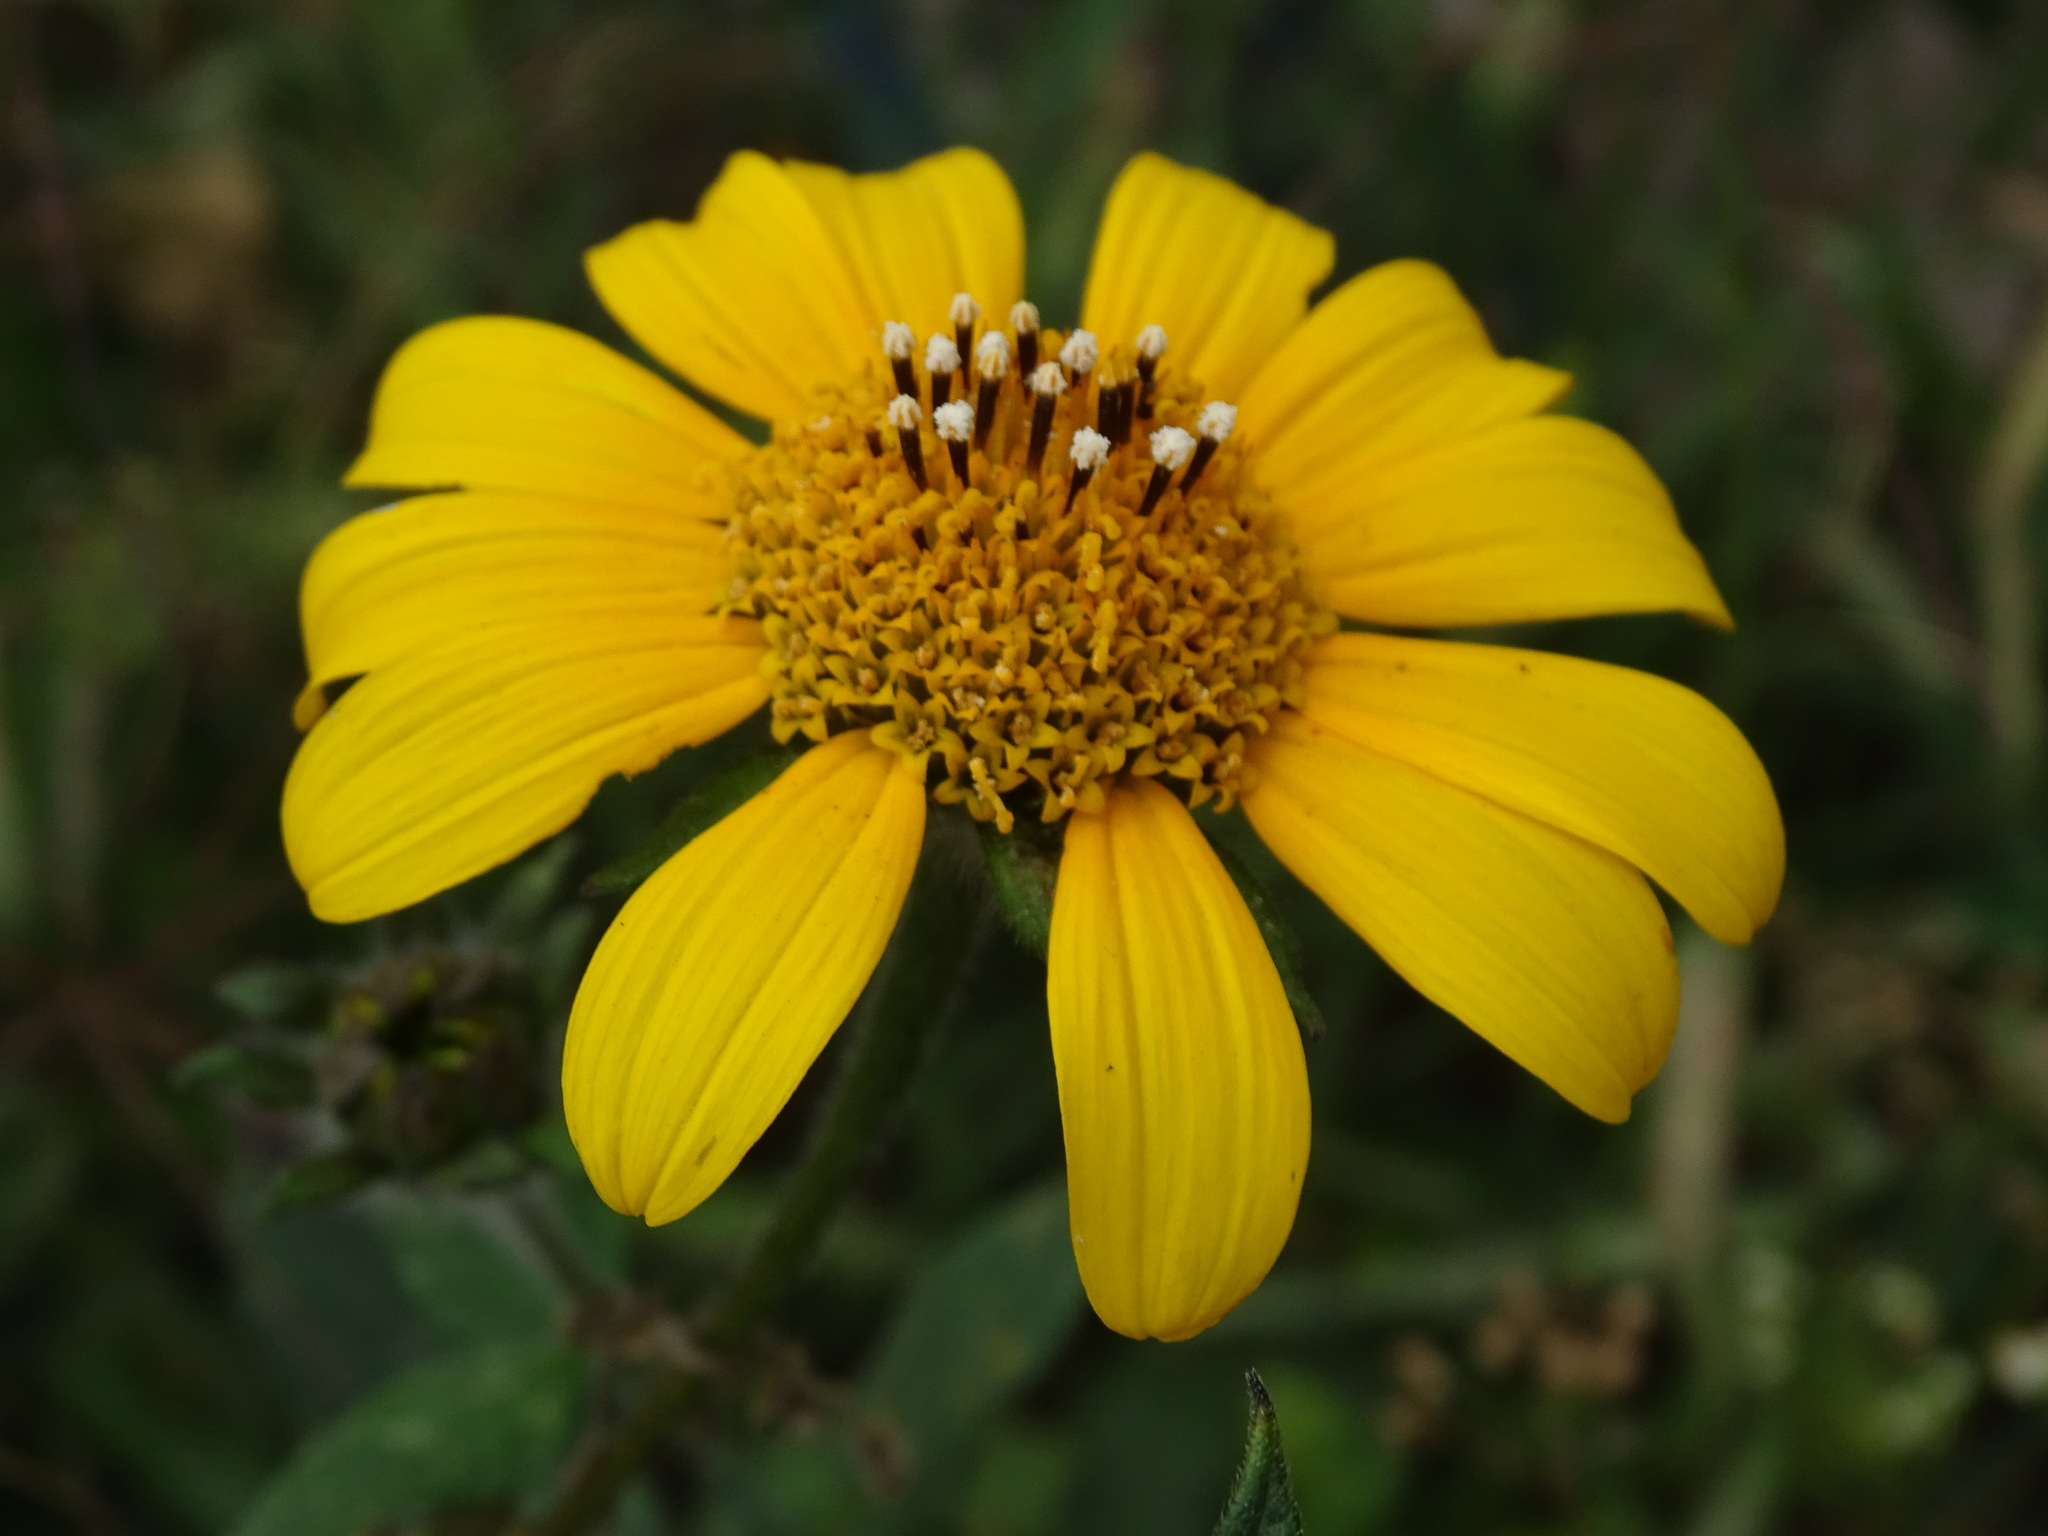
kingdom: Plantae
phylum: Tracheophyta
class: Magnoliopsida
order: Asterales
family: Asteraceae
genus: Tithonia
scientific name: Tithonia tubaeformis
